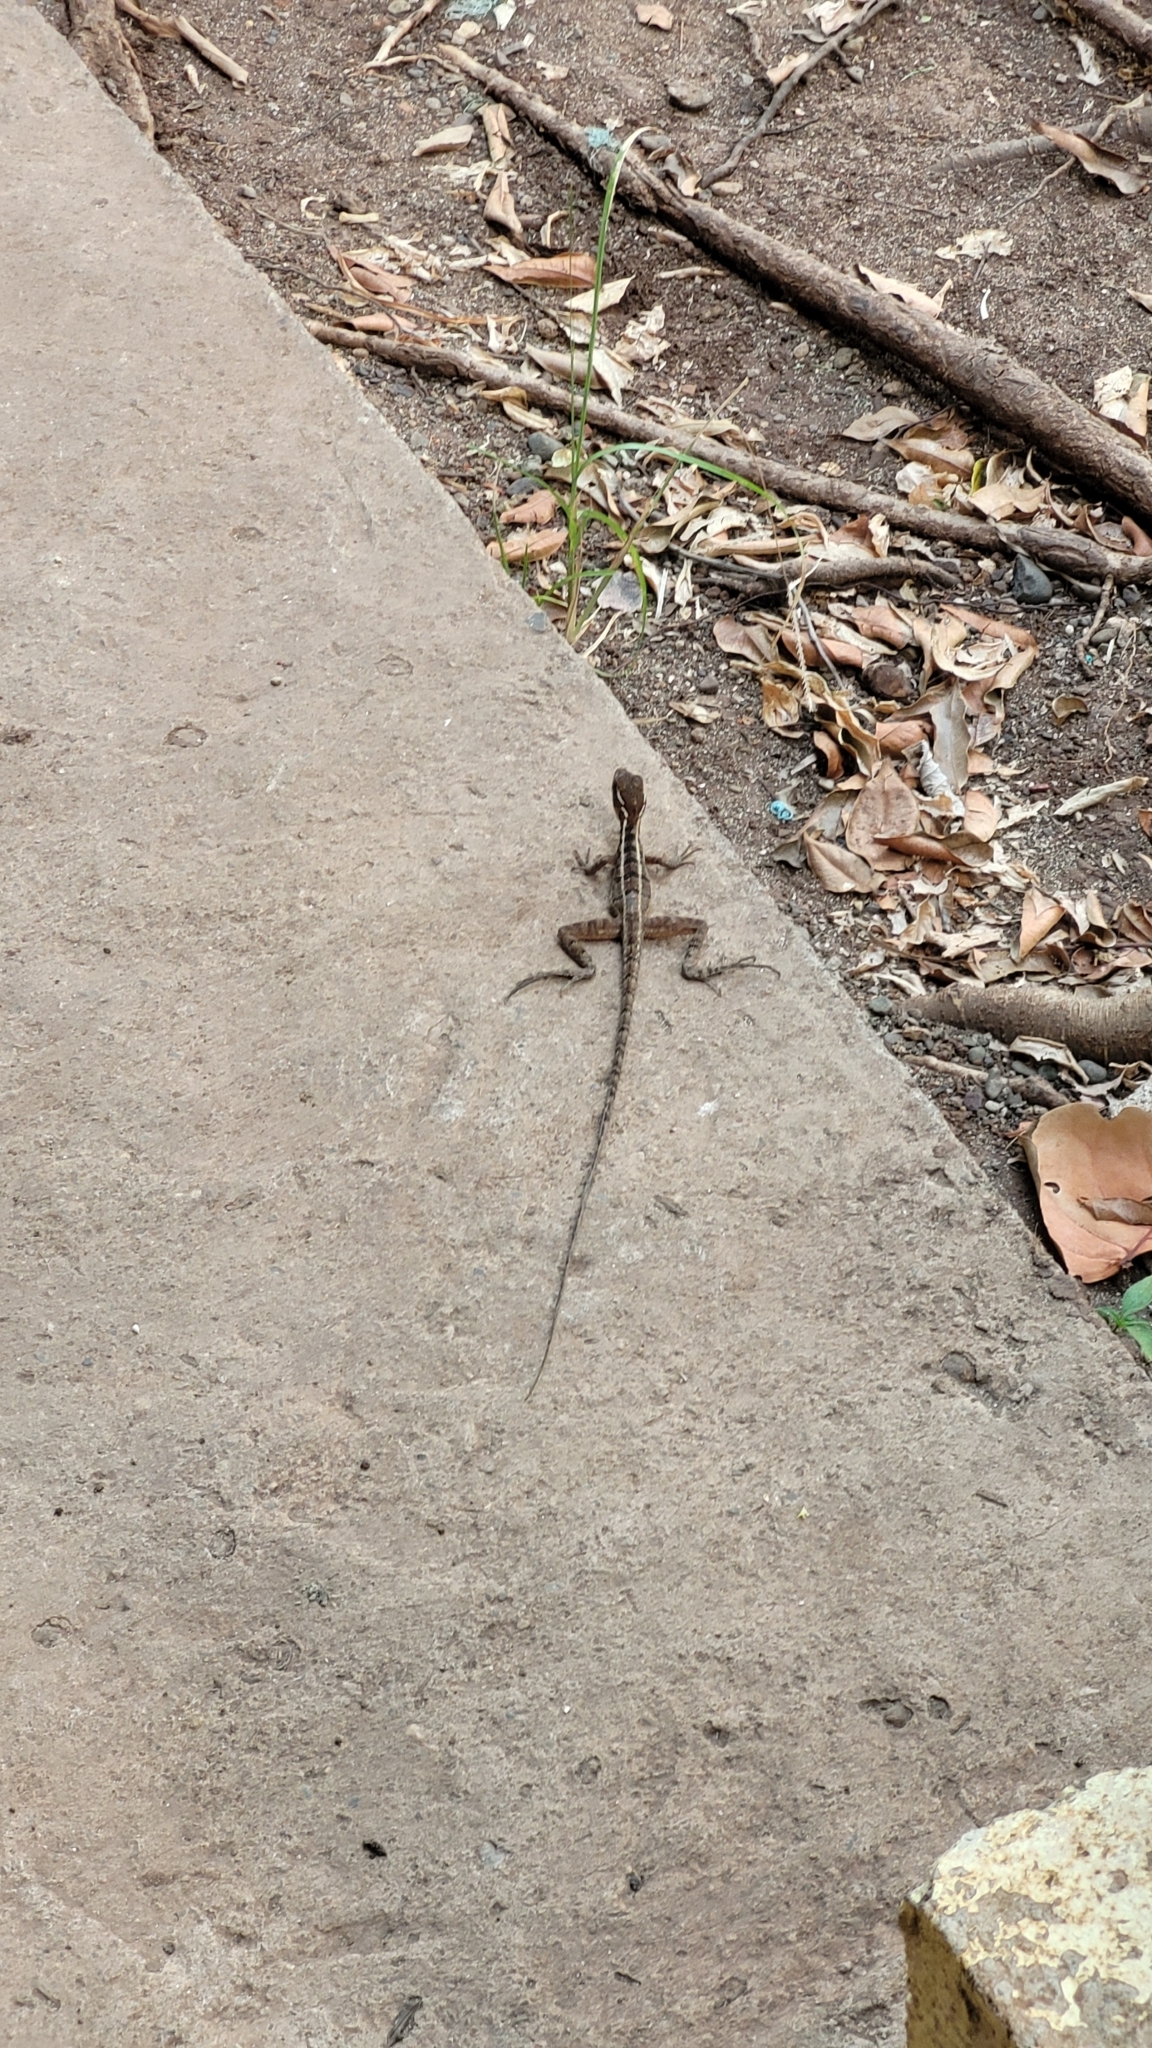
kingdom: Animalia
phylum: Chordata
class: Squamata
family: Corytophanidae
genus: Basiliscus
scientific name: Basiliscus vittatus
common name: Brown basilisk
